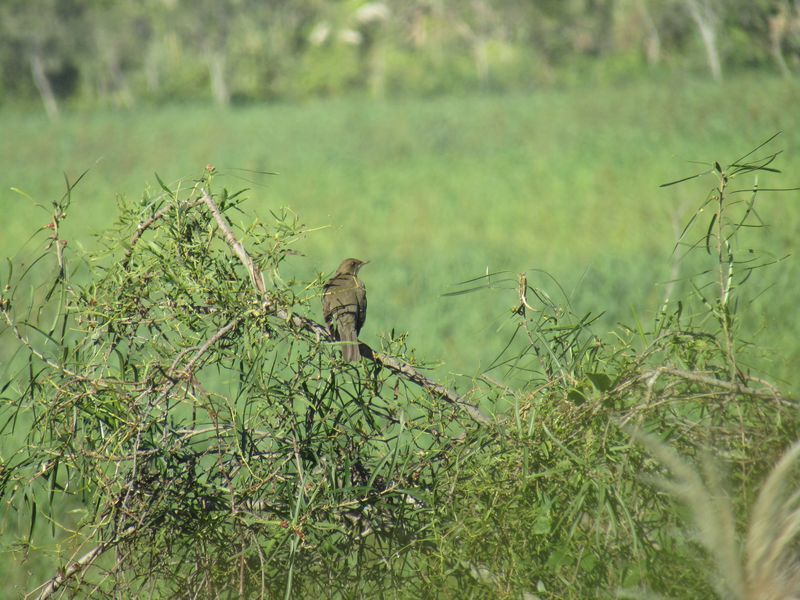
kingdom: Animalia
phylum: Chordata
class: Aves
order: Passeriformes
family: Turdidae
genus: Turdus
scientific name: Turdus amaurochalinus
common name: Creamy-bellied thrush
